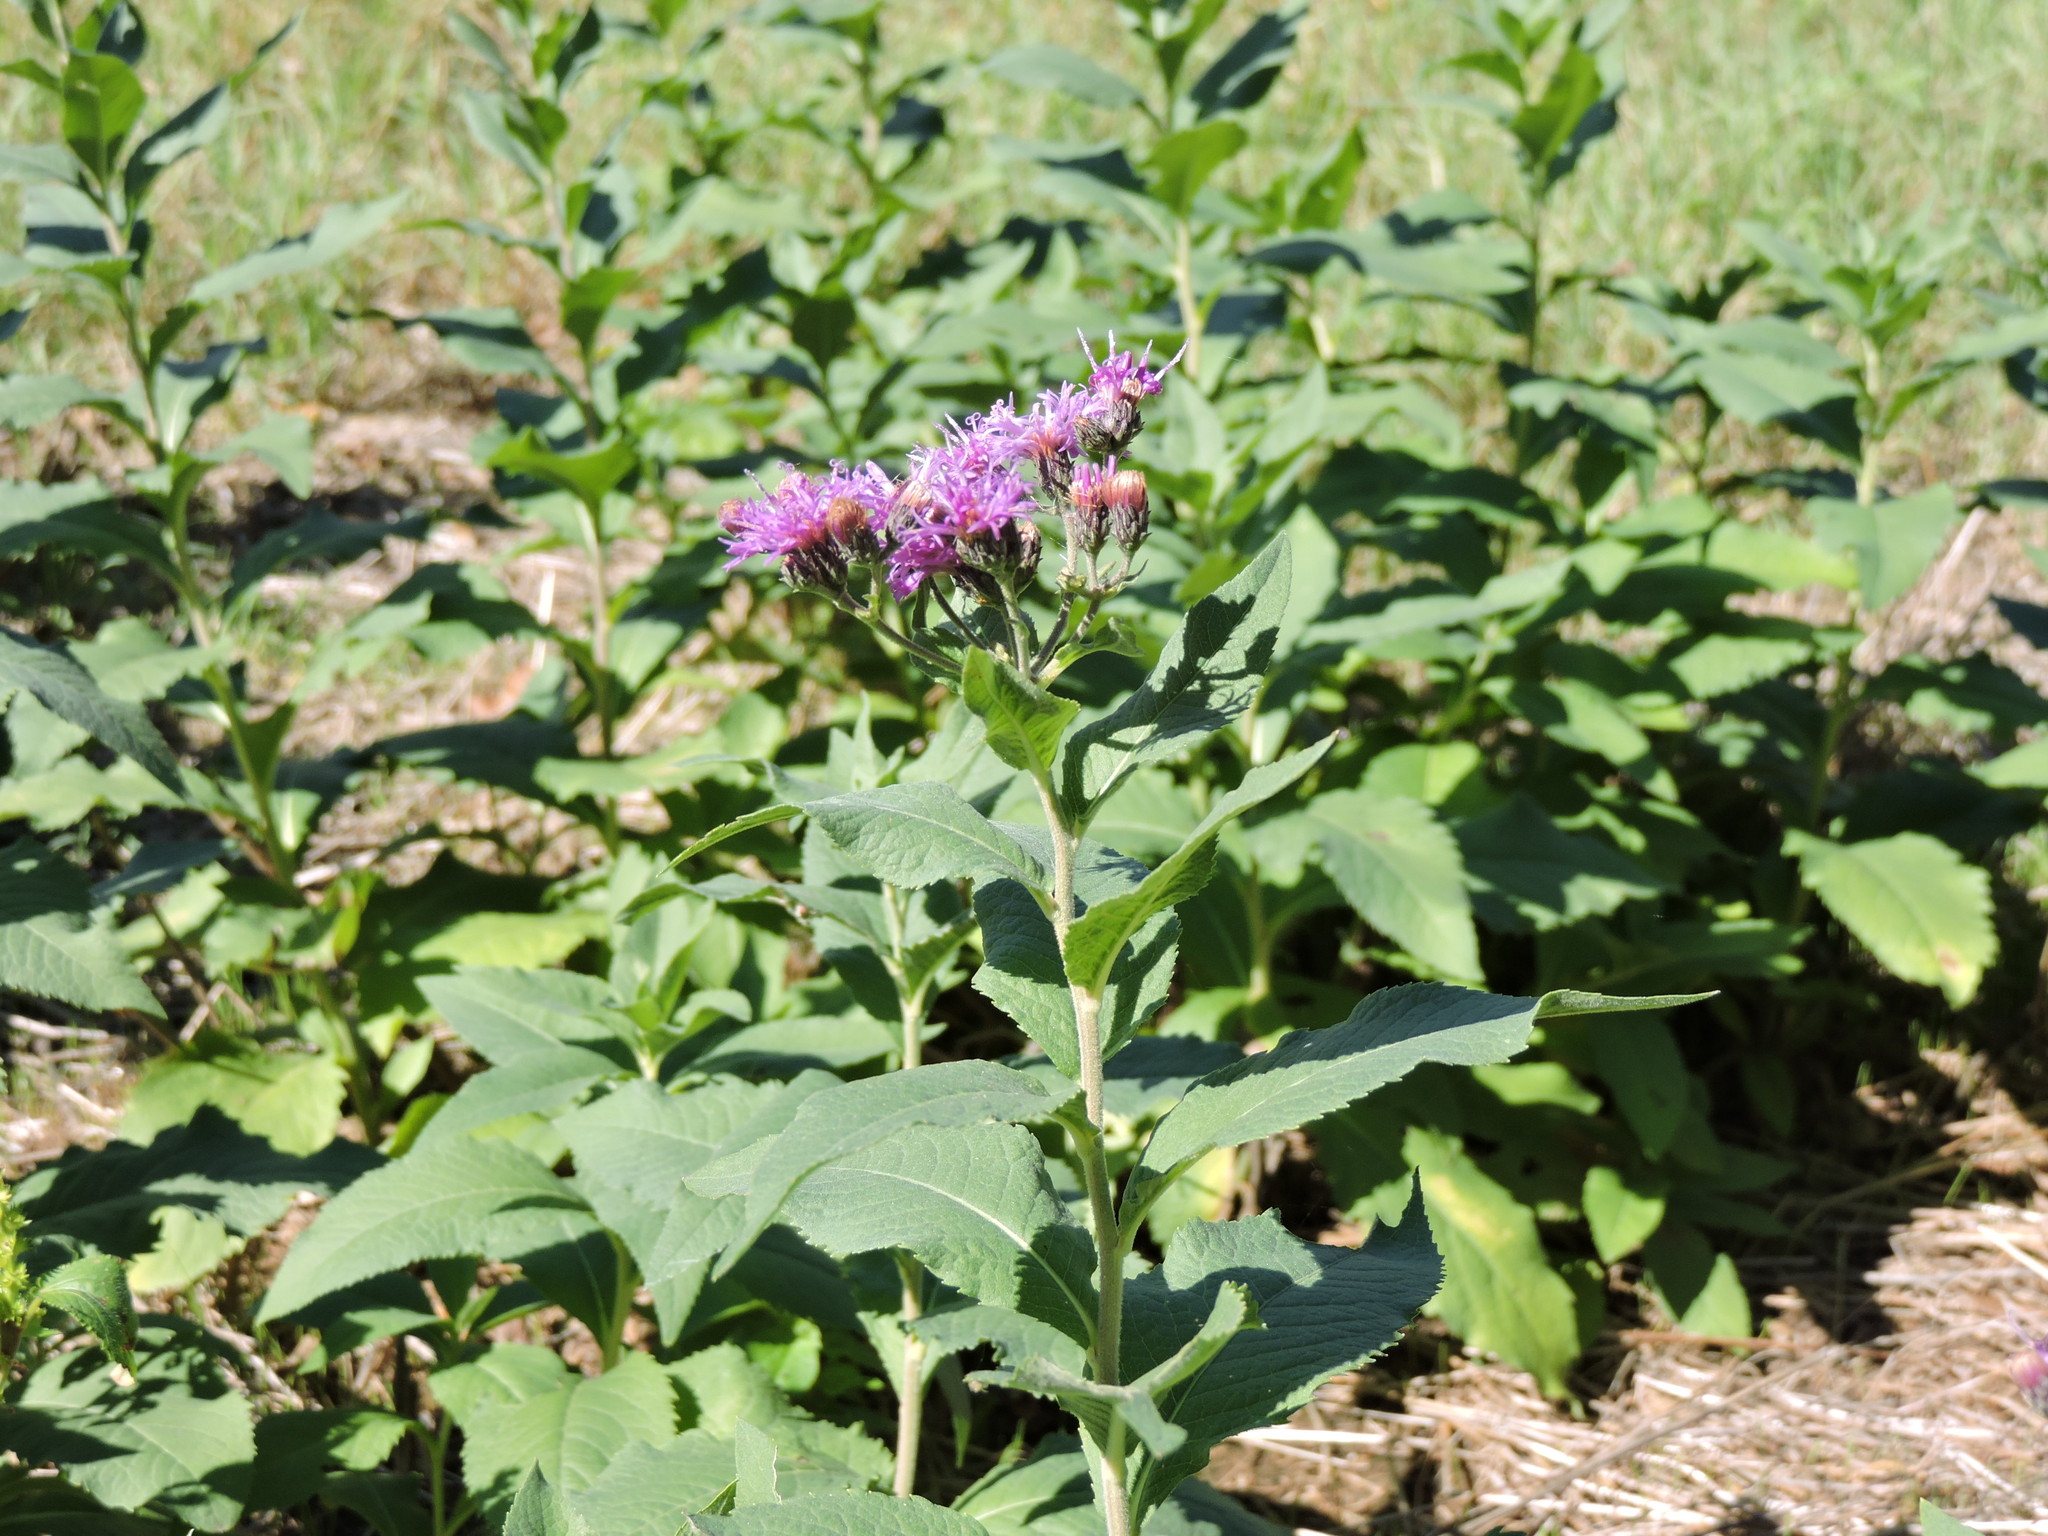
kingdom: Plantae
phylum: Tracheophyta
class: Magnoliopsida
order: Asterales
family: Asteraceae
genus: Vernonia
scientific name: Vernonia baldwinii
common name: Western ironweed
